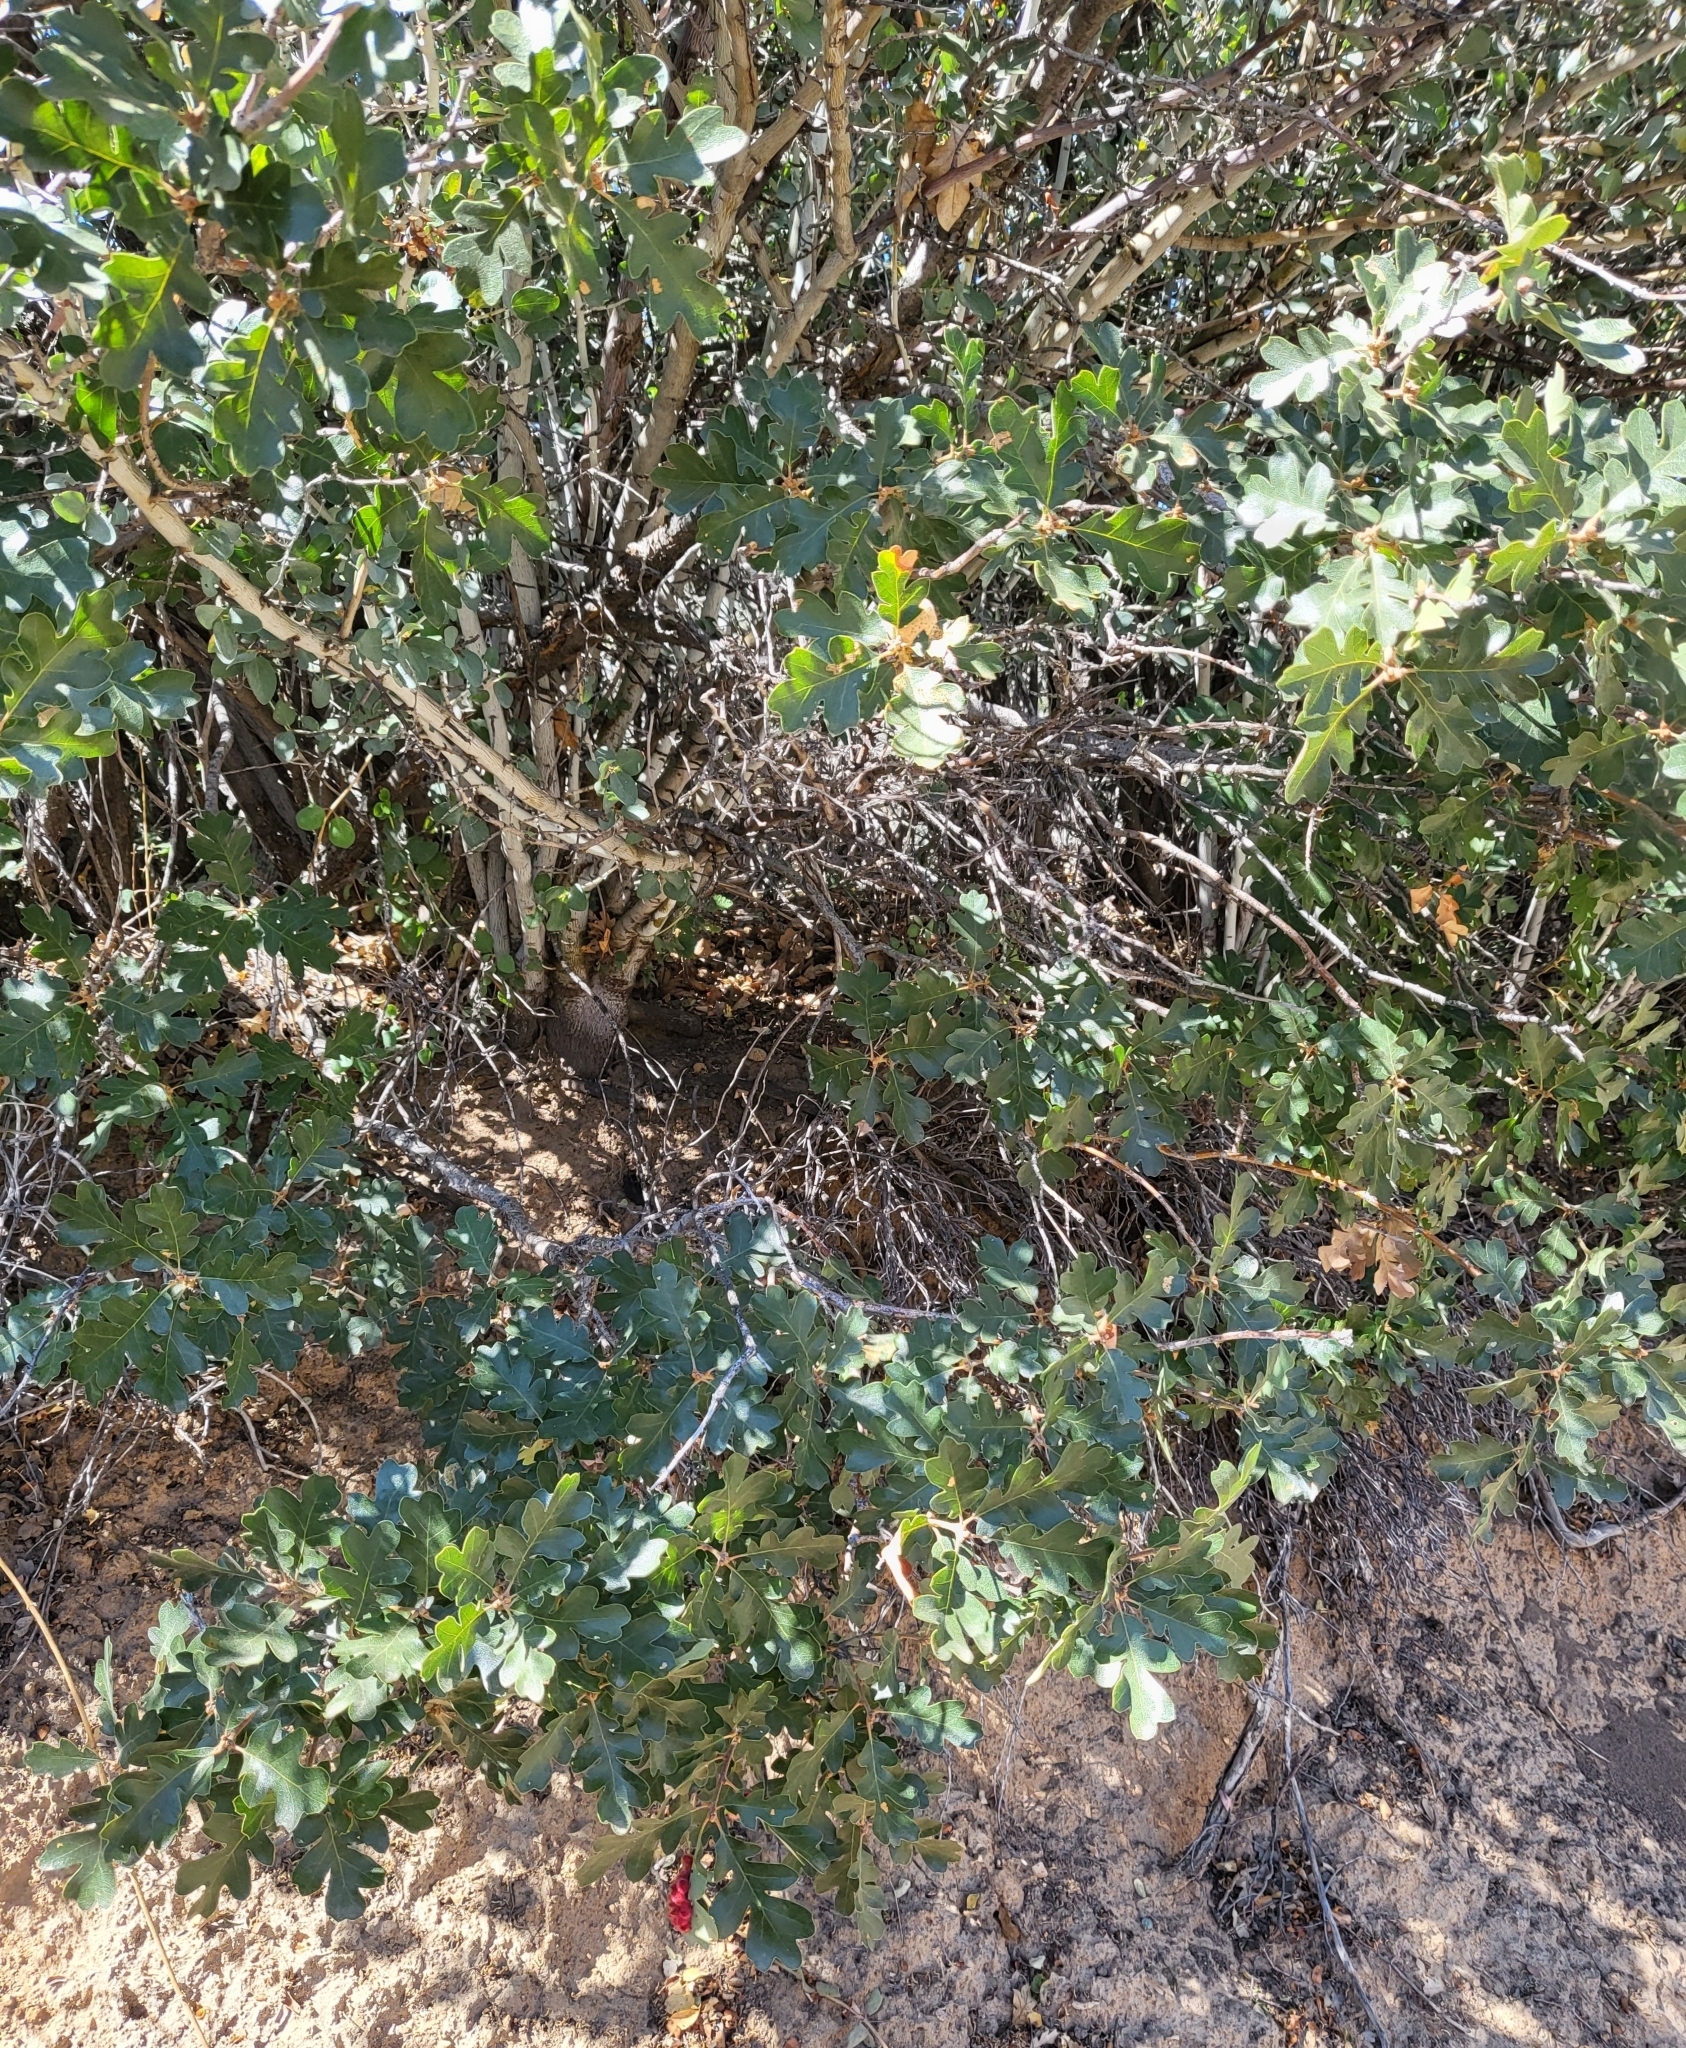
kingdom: Plantae
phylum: Tracheophyta
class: Magnoliopsida
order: Fagales
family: Fagaceae
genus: Quercus
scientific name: Quercus garryana
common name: Garry oak
